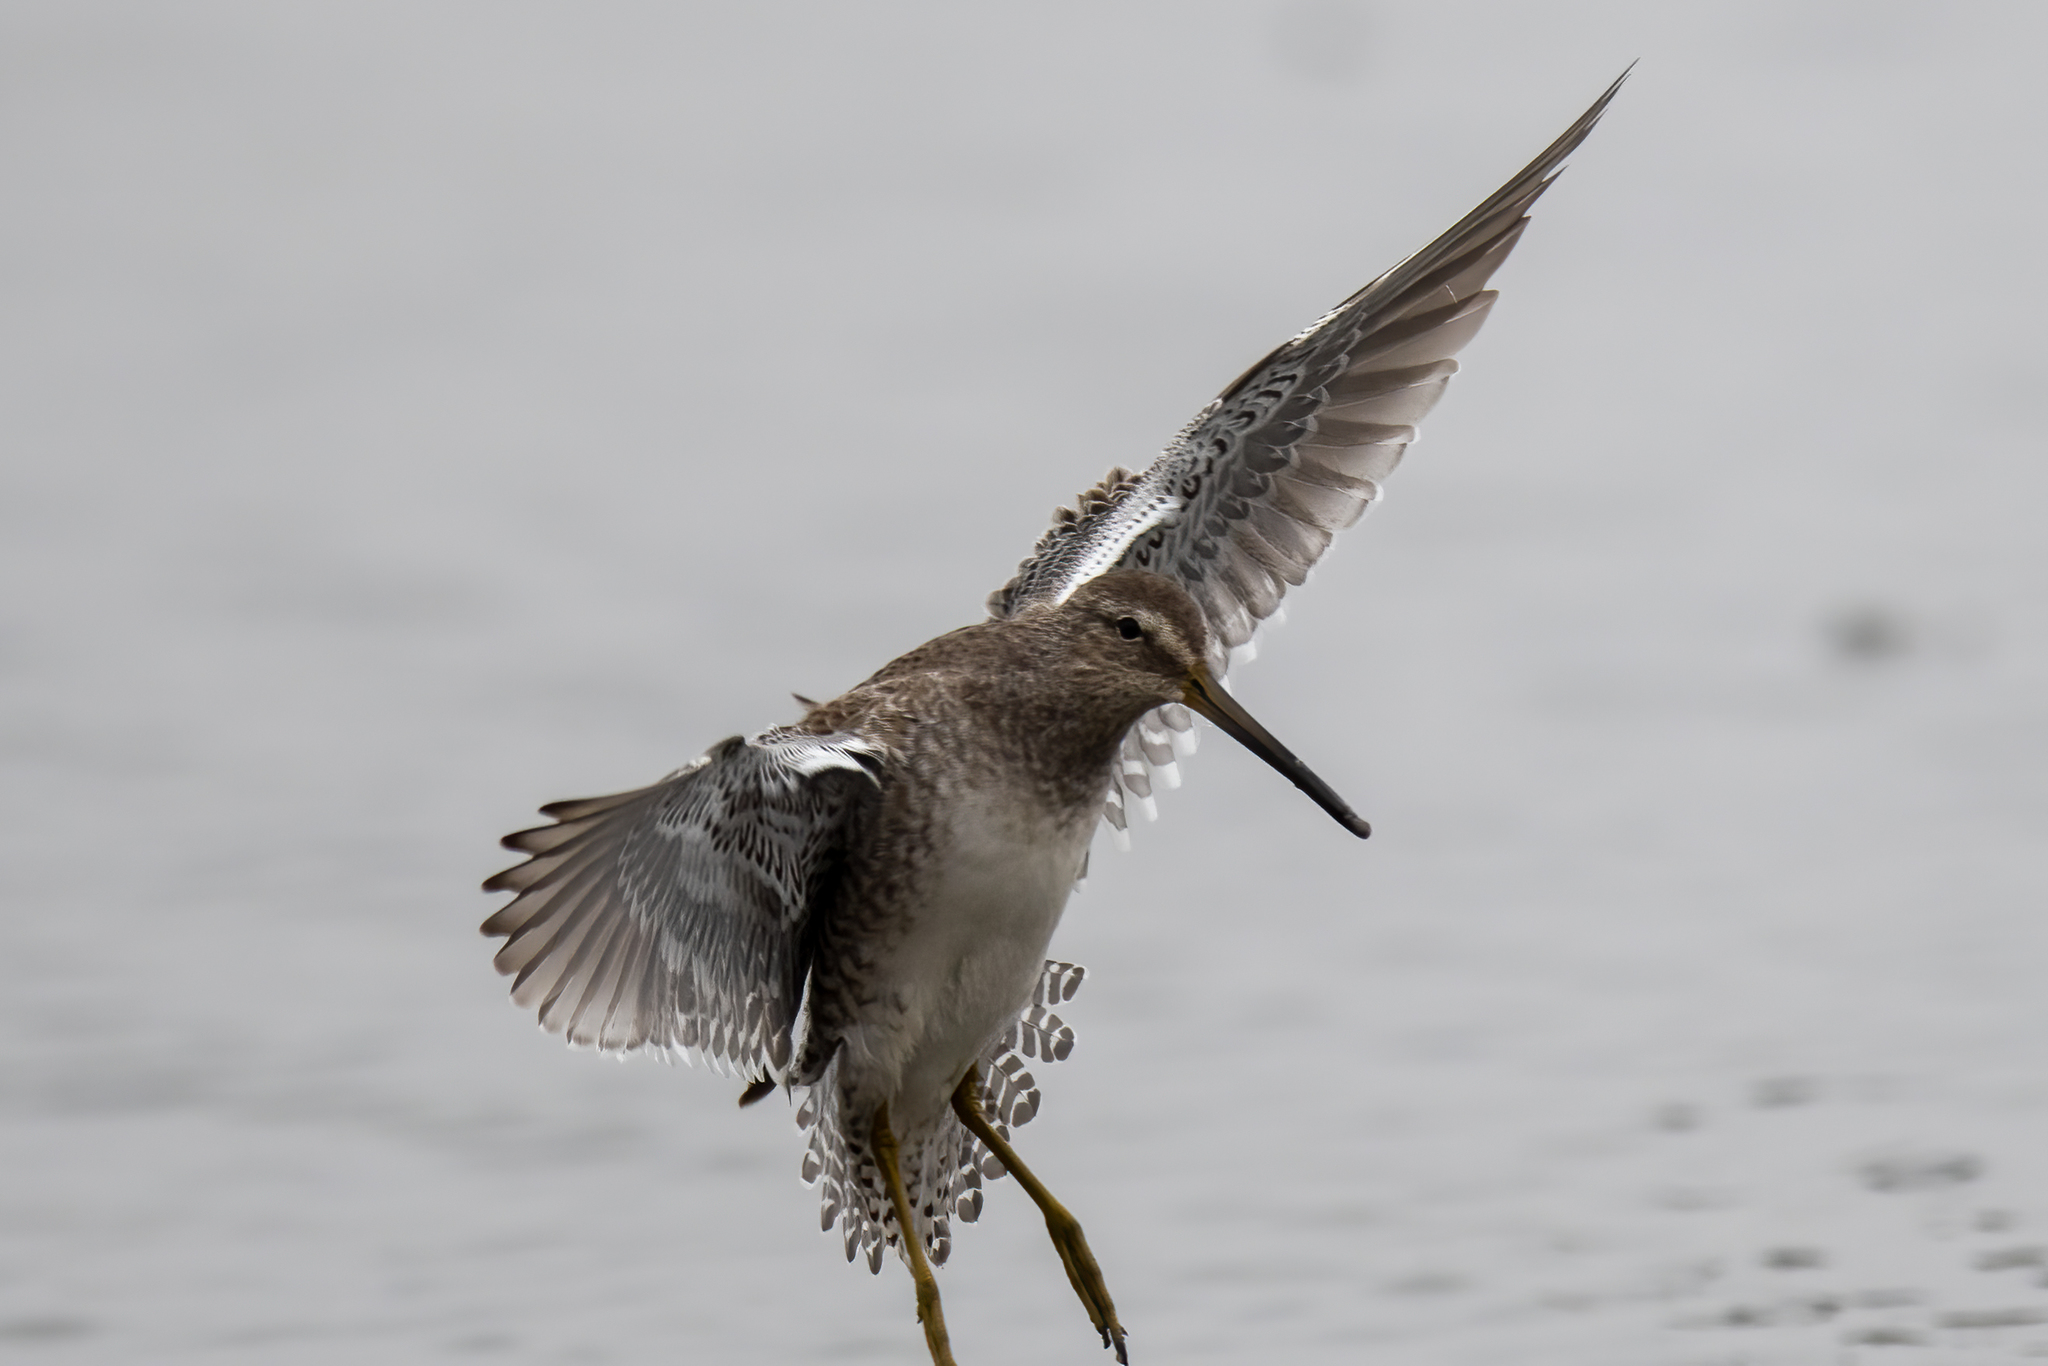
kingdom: Animalia
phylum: Chordata
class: Aves
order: Charadriiformes
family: Scolopacidae
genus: Limnodromus
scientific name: Limnodromus scolopaceus
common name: Long-billed dowitcher
